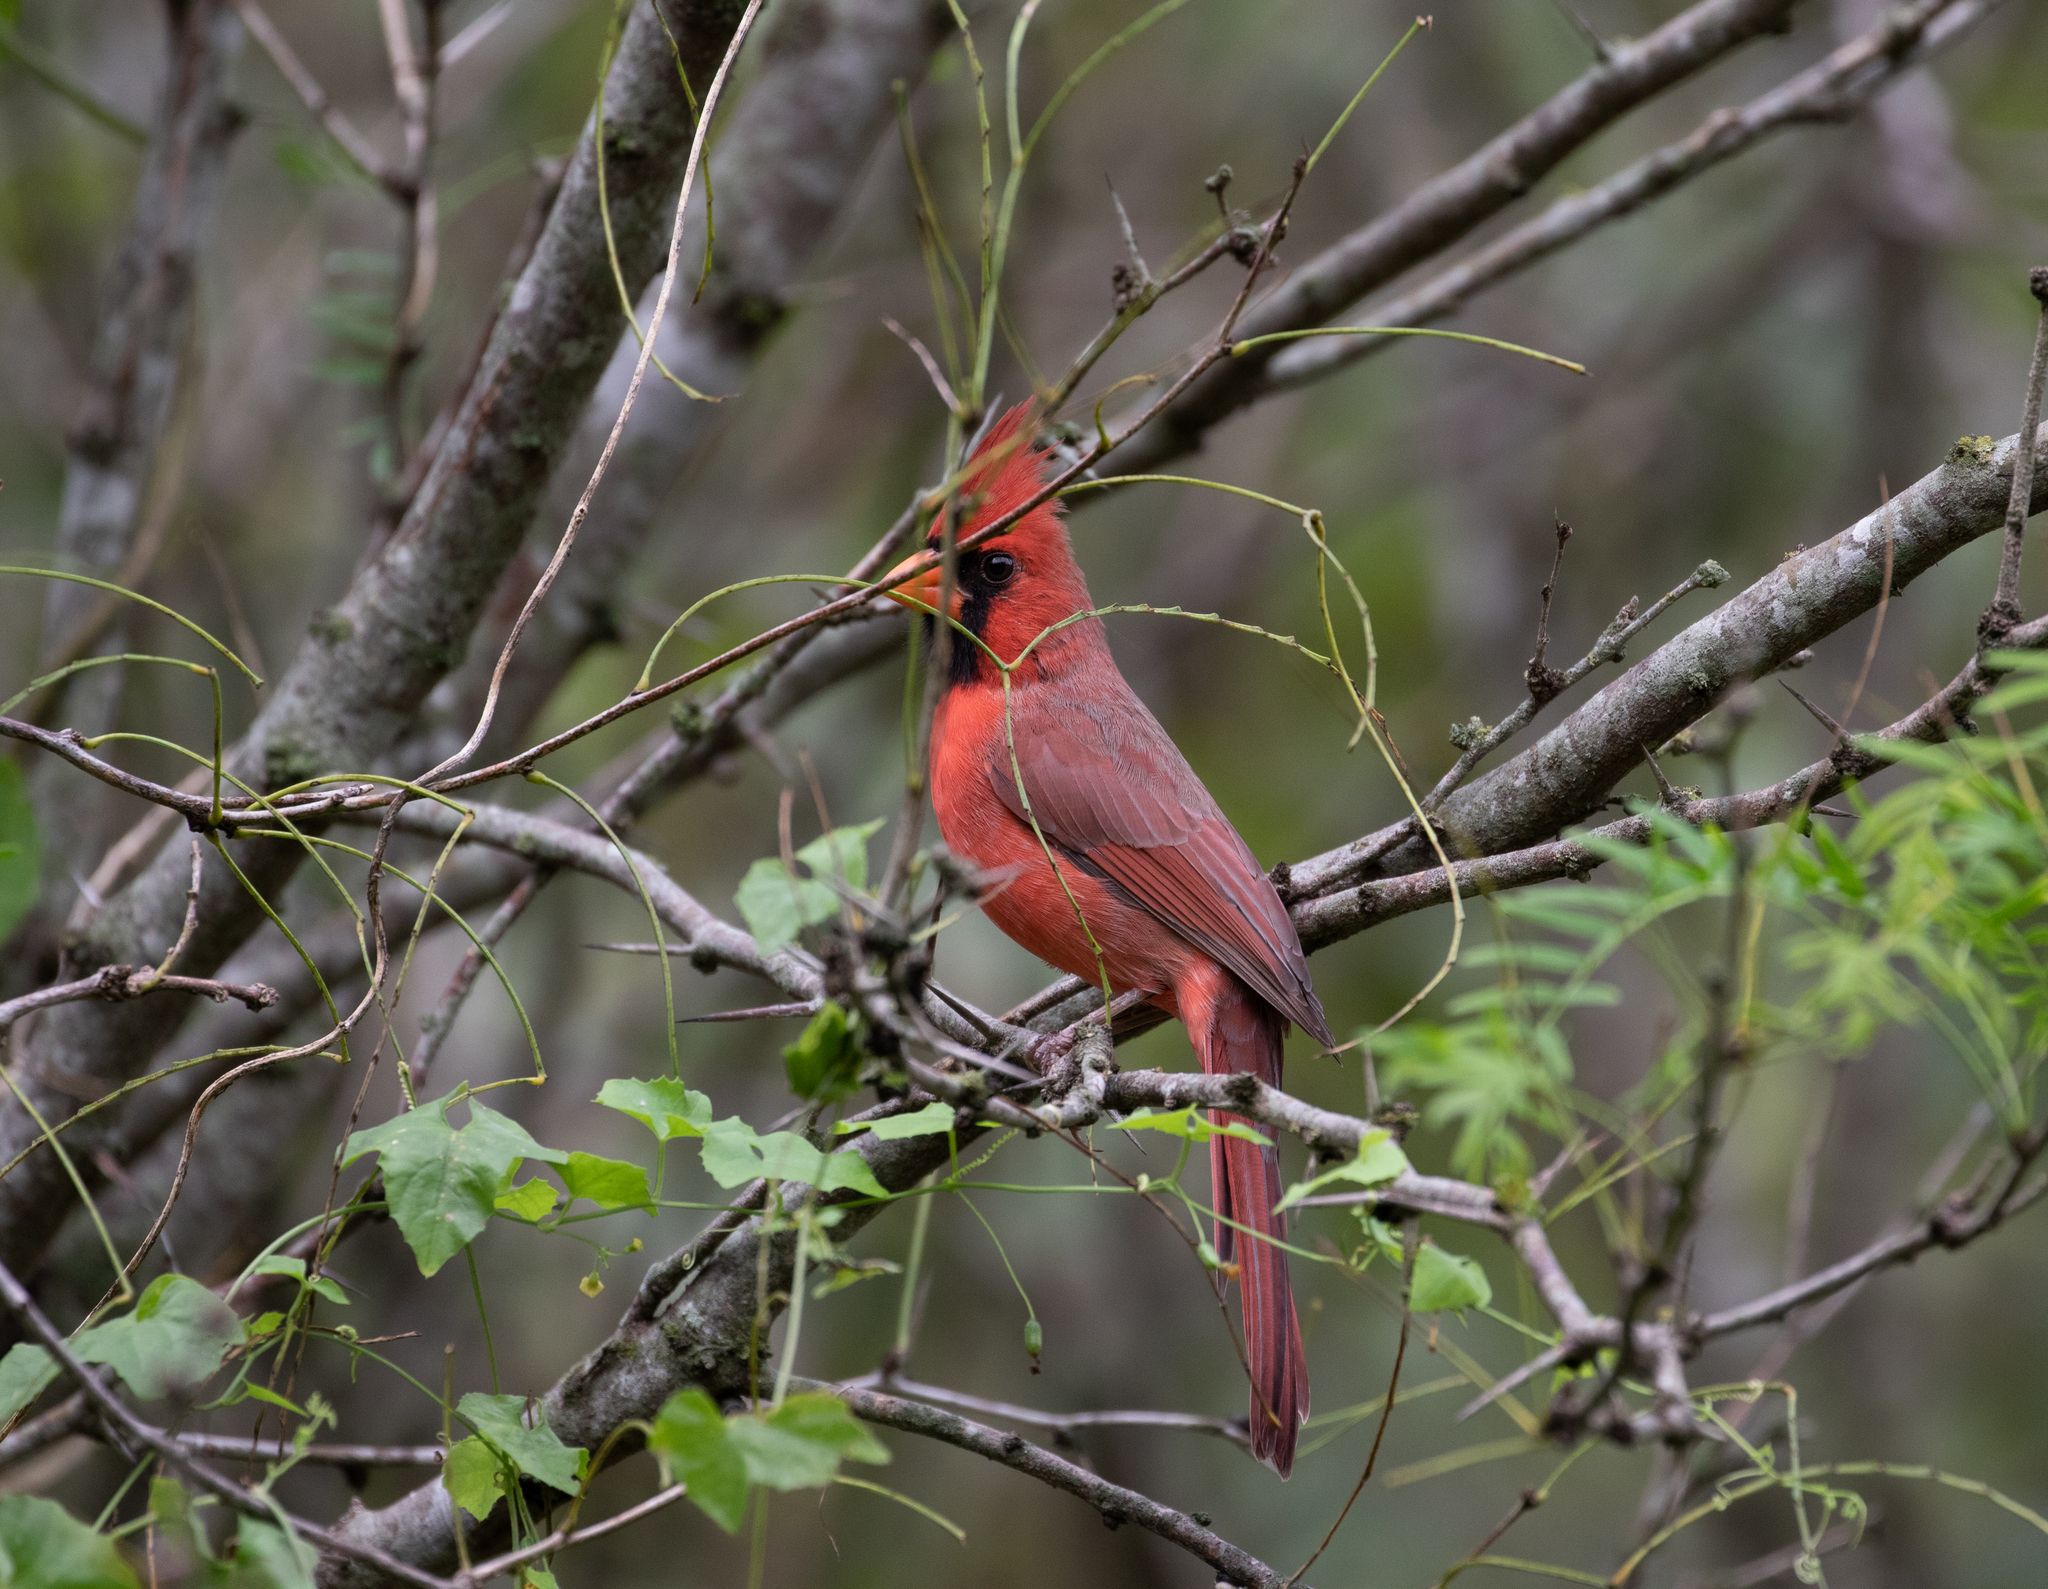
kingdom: Animalia
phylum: Chordata
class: Aves
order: Passeriformes
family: Cardinalidae
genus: Cardinalis
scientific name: Cardinalis cardinalis
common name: Northern cardinal
